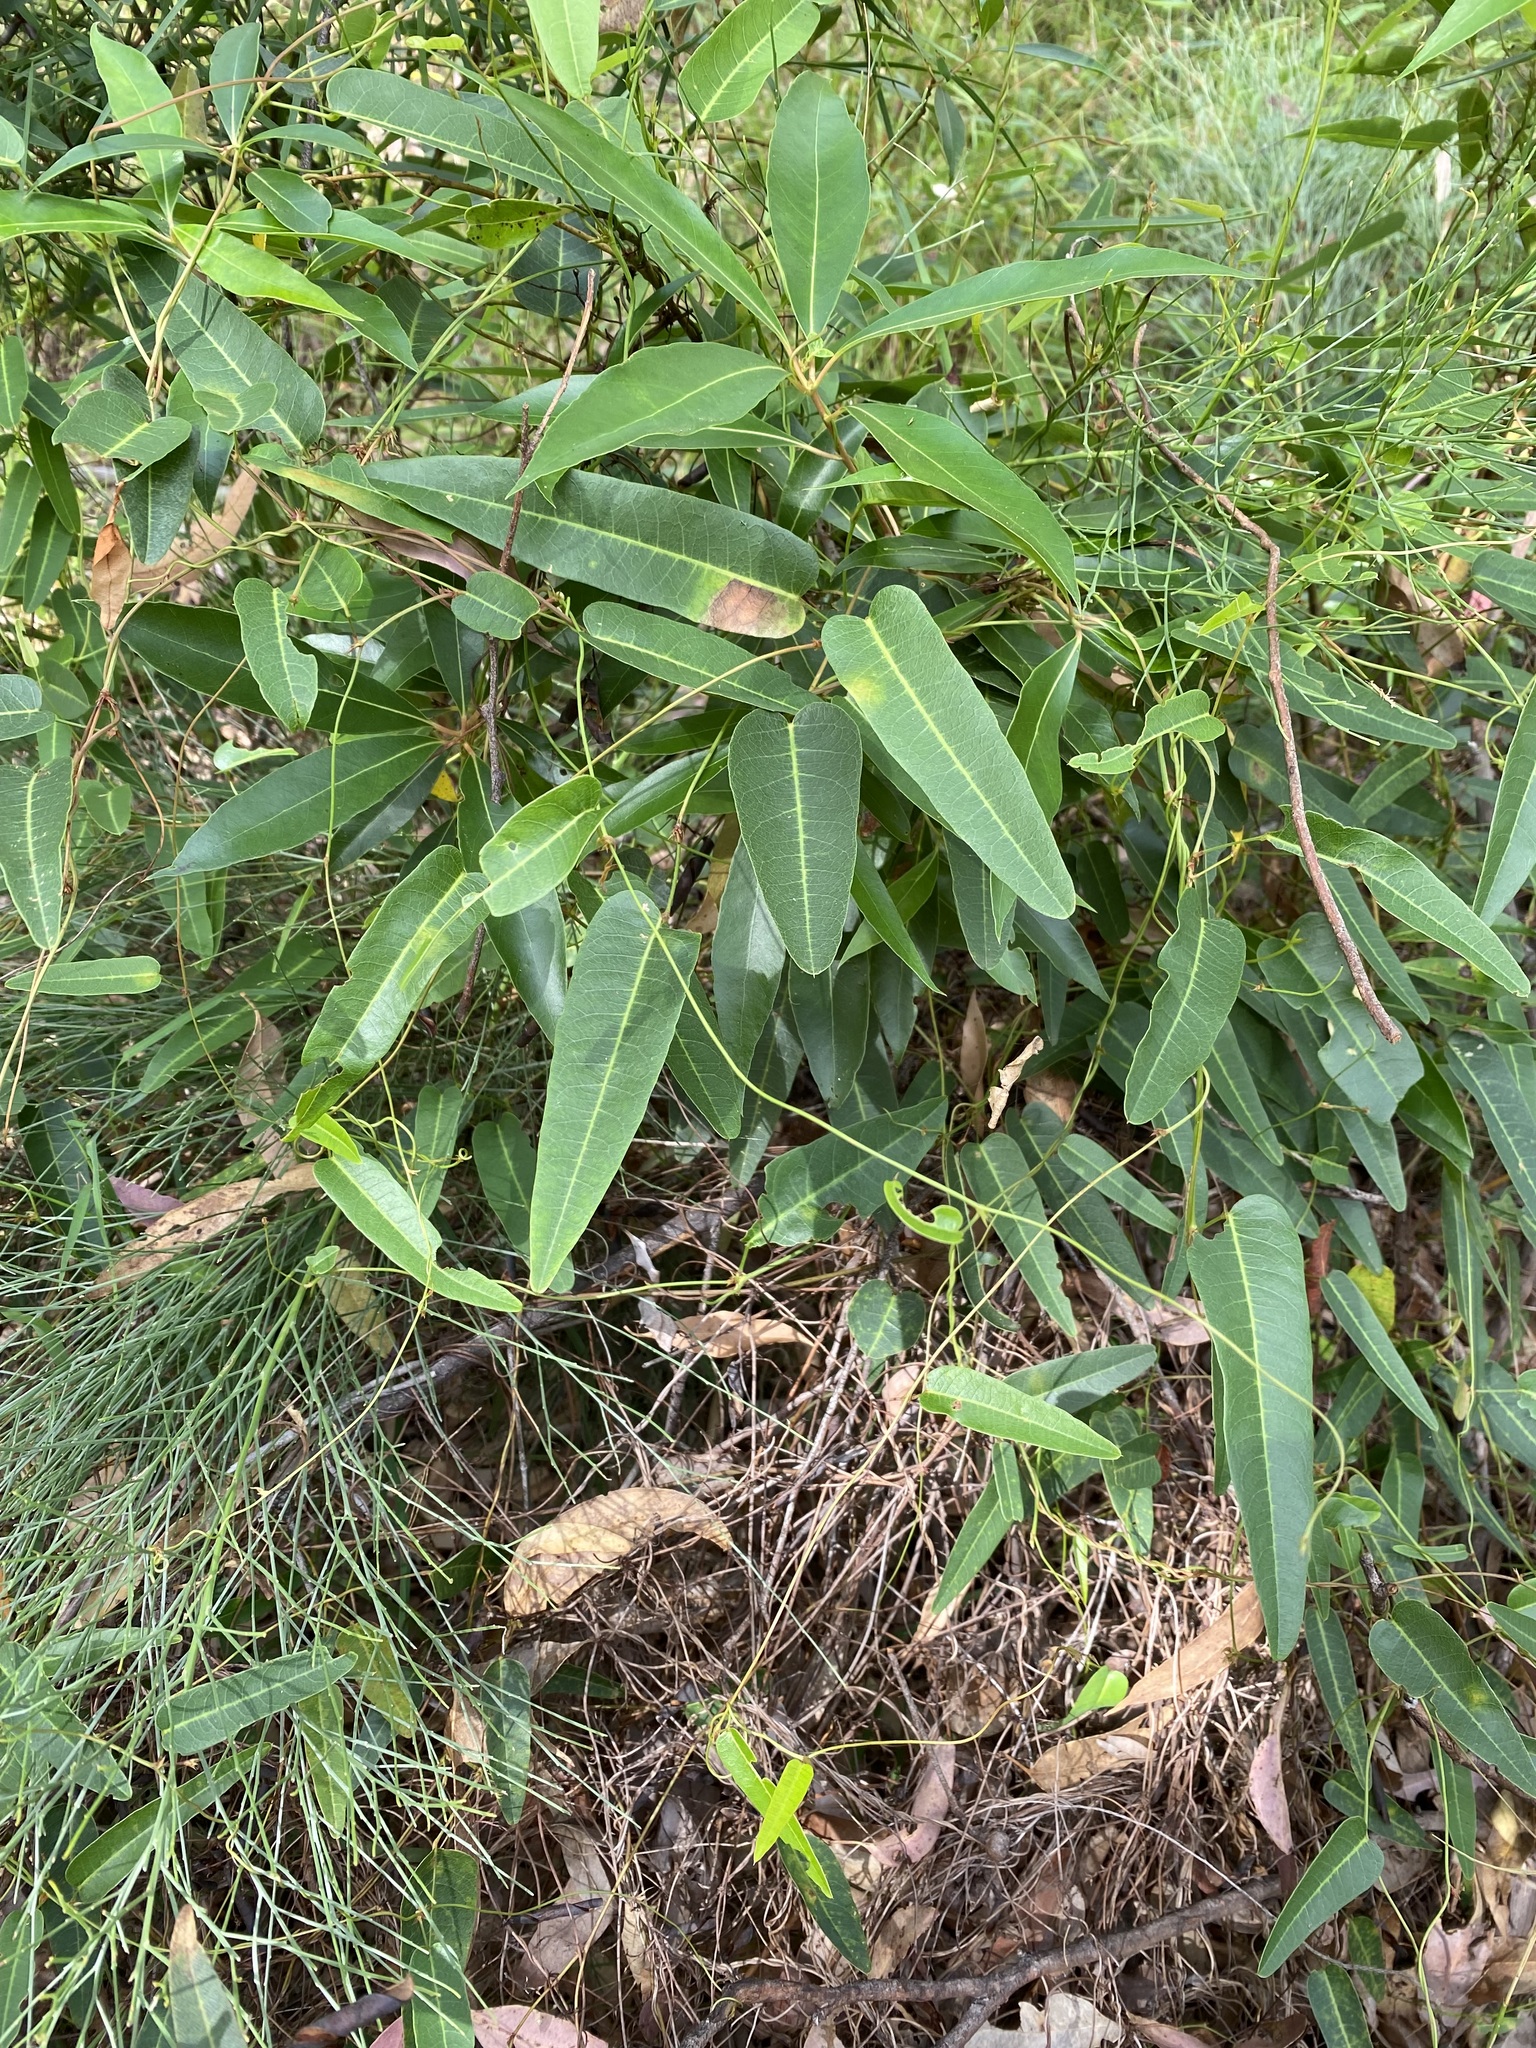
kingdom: Plantae
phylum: Tracheophyta
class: Magnoliopsida
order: Fabales
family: Fabaceae
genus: Hardenbergia
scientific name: Hardenbergia violacea
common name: Coral-pea
